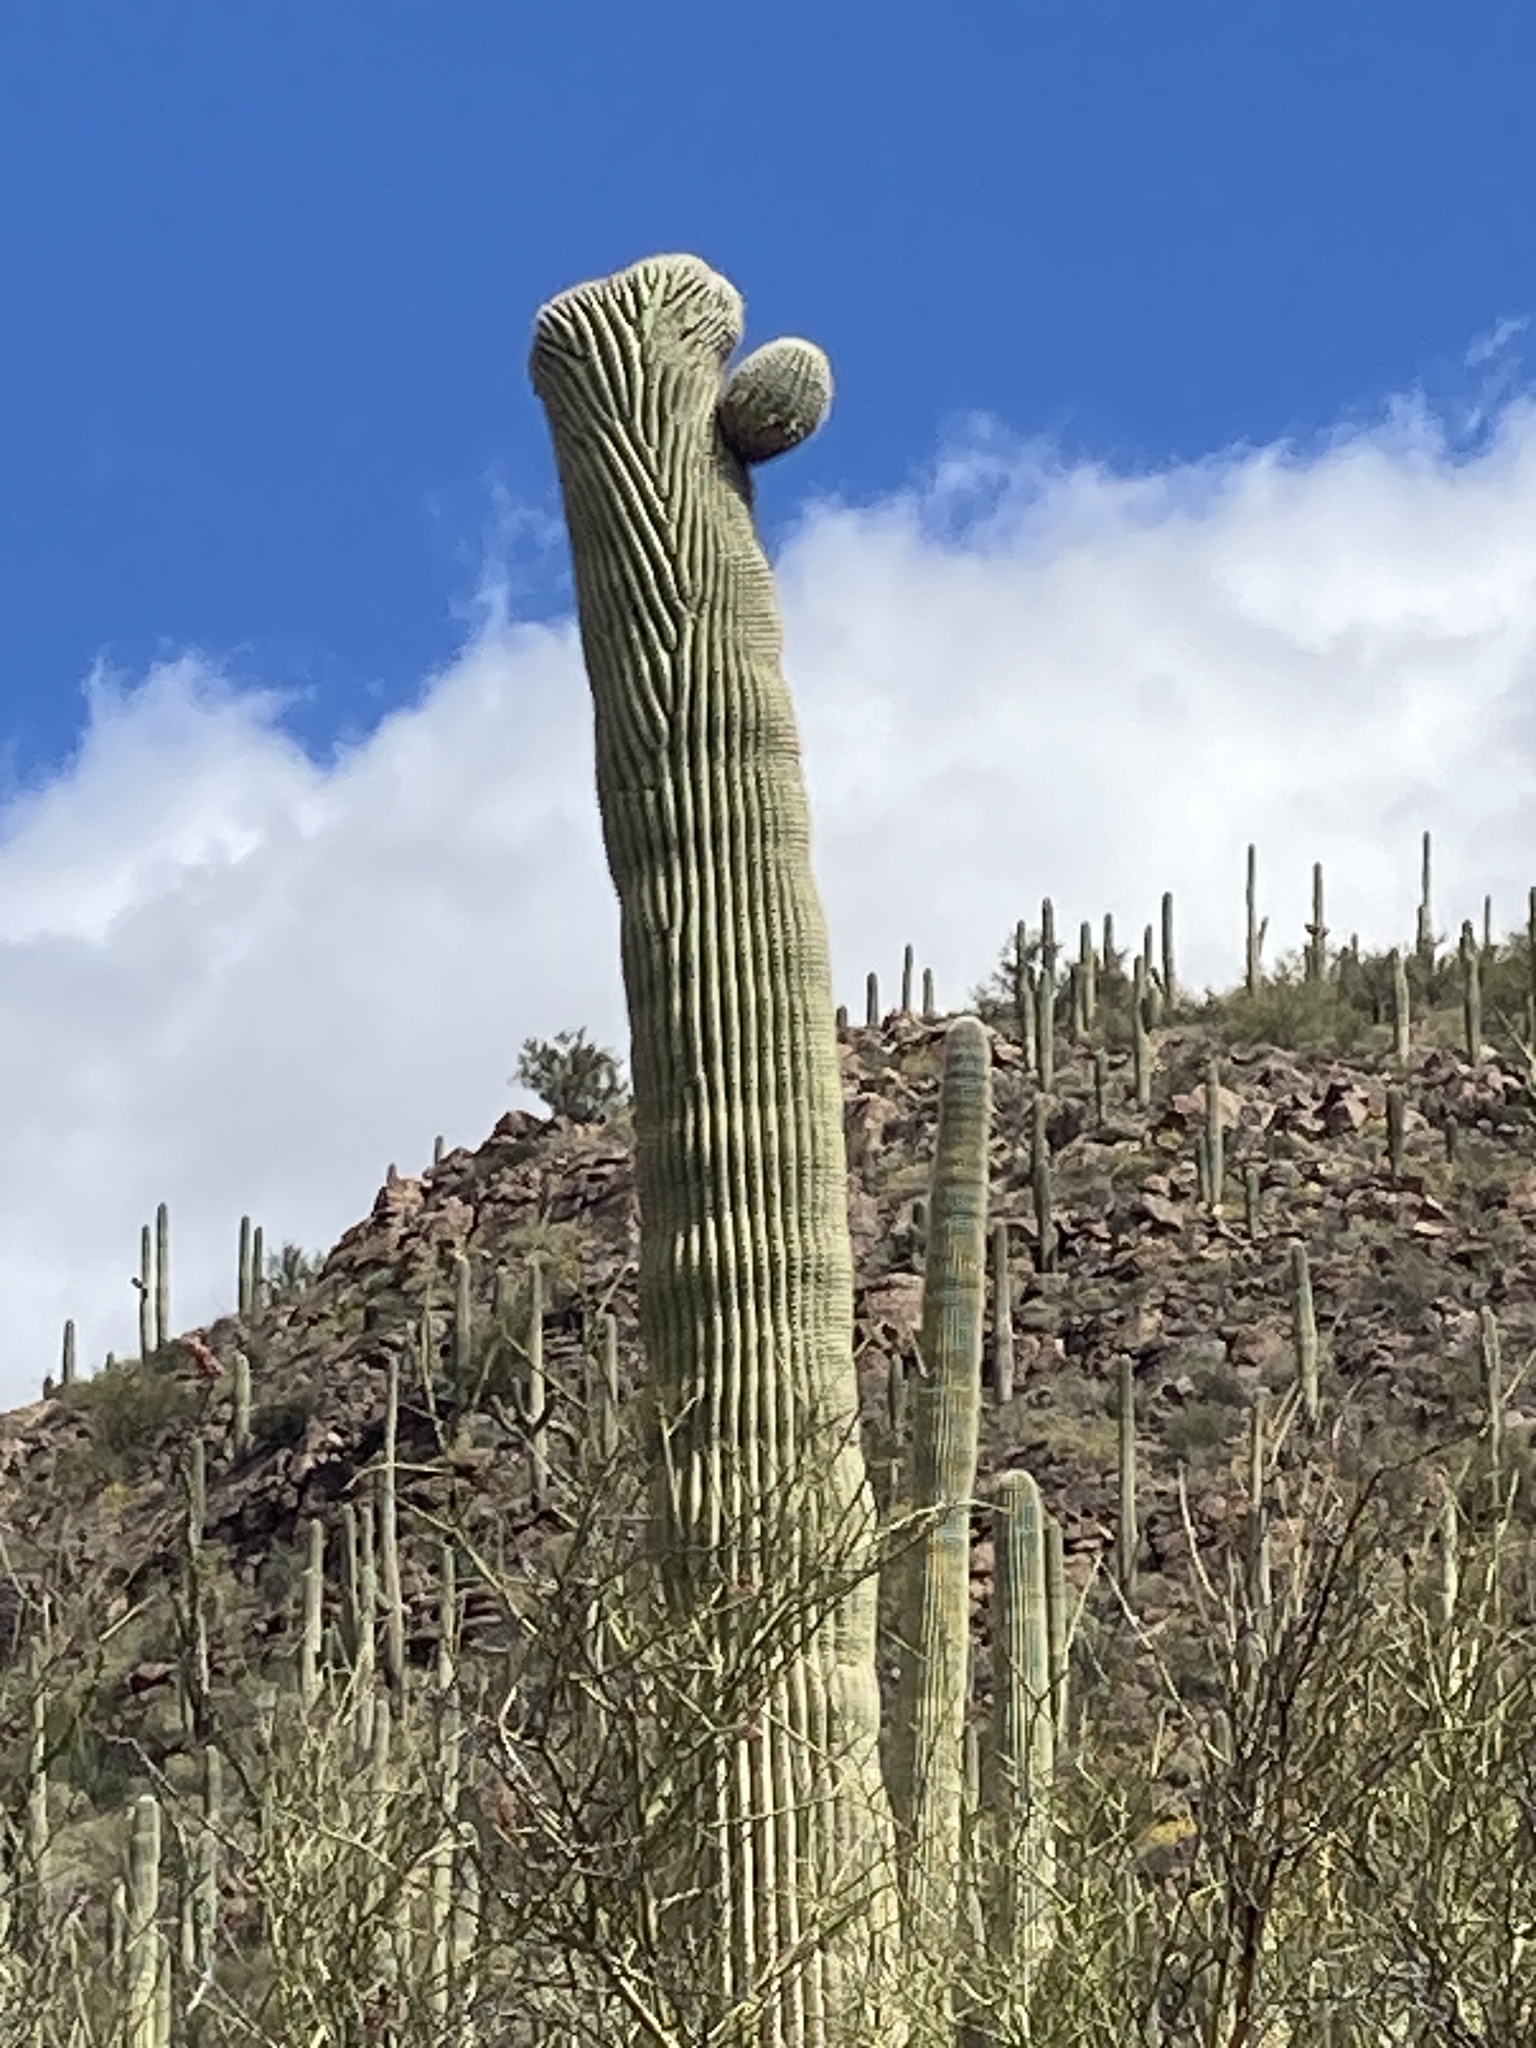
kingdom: Plantae
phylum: Tracheophyta
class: Magnoliopsida
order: Caryophyllales
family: Cactaceae
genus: Carnegiea
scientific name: Carnegiea gigantea
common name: Saguaro
